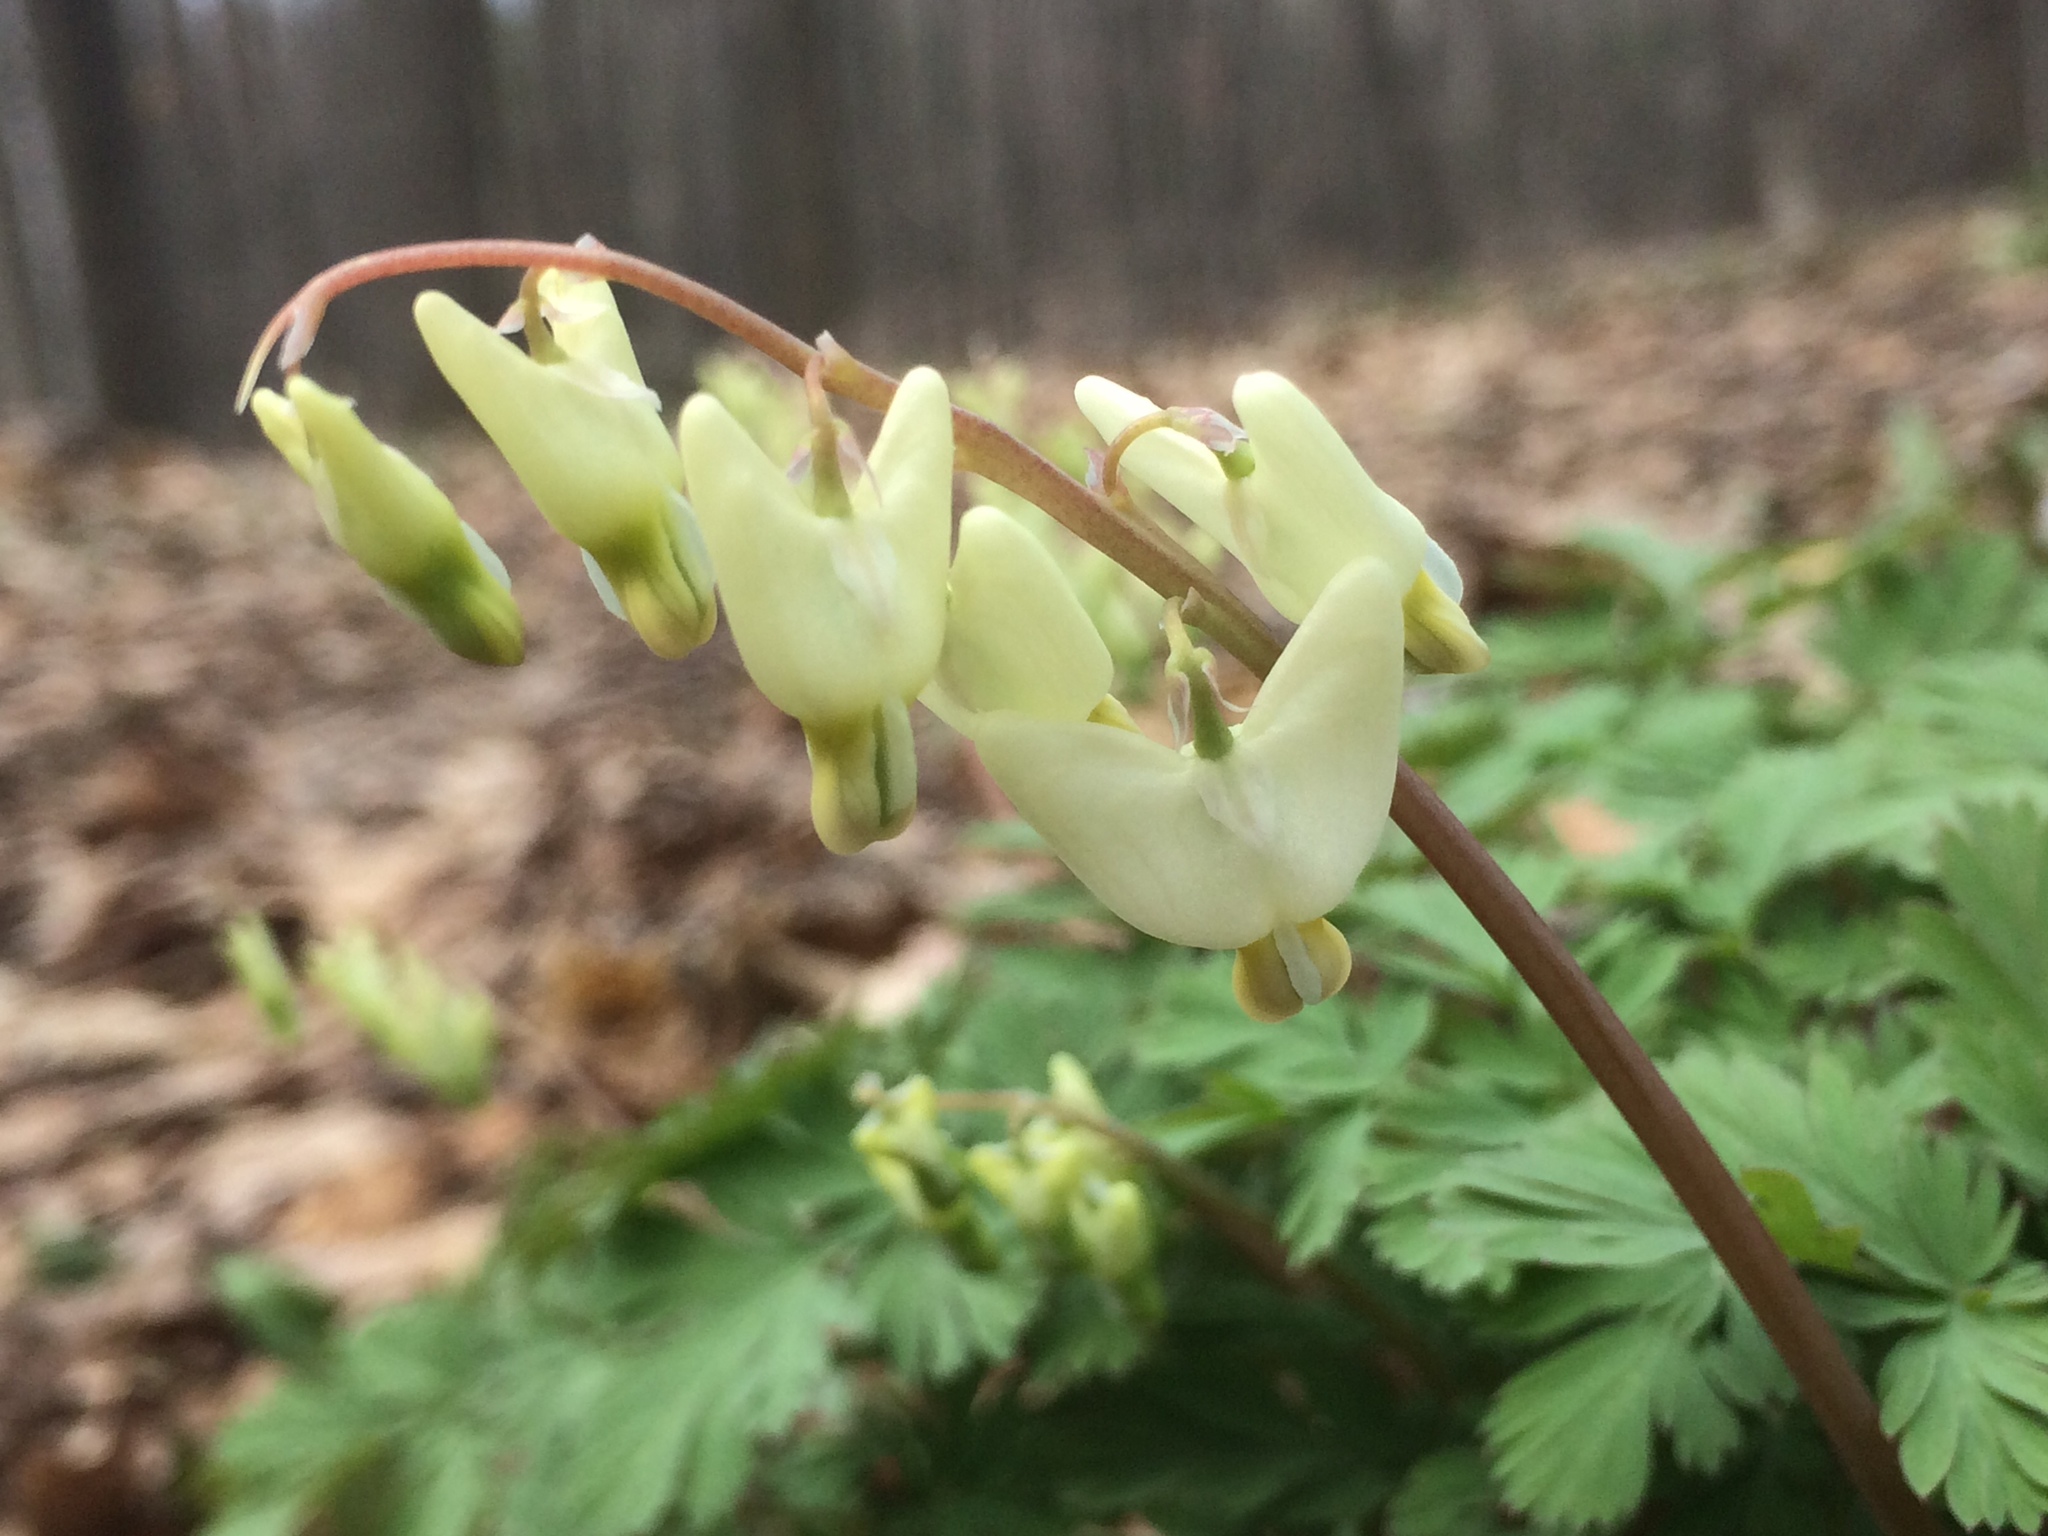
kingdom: Plantae
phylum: Tracheophyta
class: Magnoliopsida
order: Ranunculales
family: Papaveraceae
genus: Dicentra
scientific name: Dicentra cucullaria
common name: Dutchman's breeches
